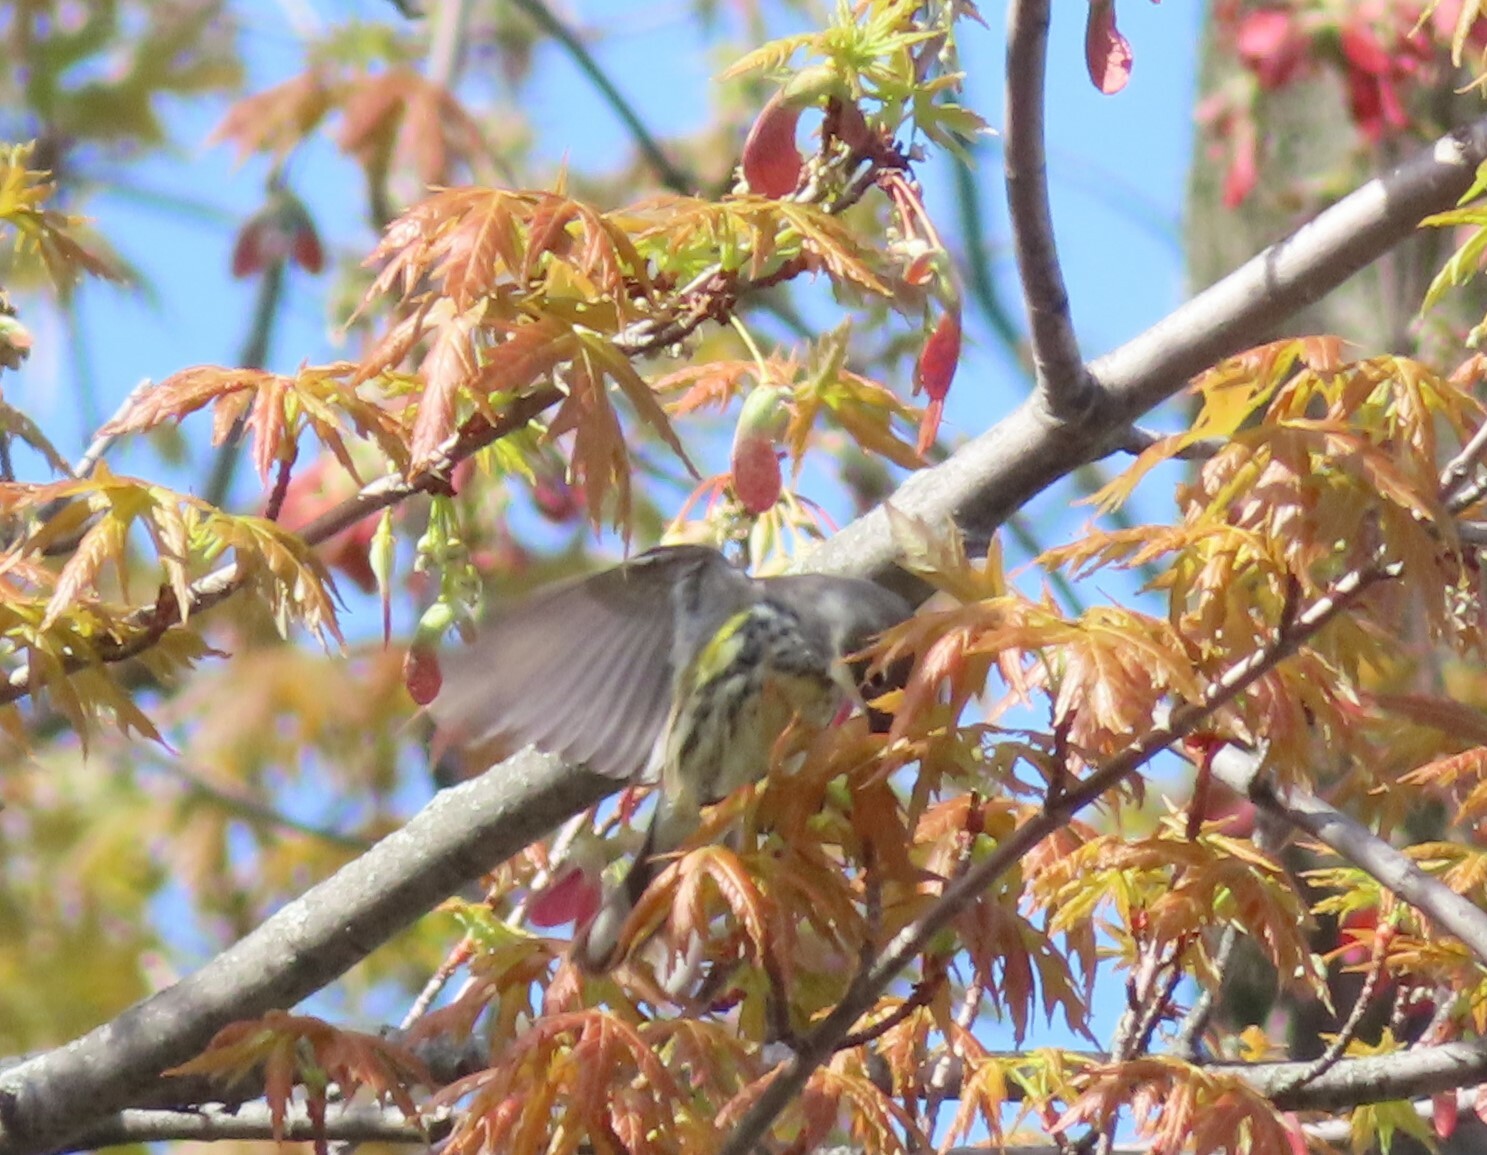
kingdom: Animalia
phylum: Chordata
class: Aves
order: Passeriformes
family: Parulidae
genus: Setophaga
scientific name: Setophaga coronata
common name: Myrtle warbler
